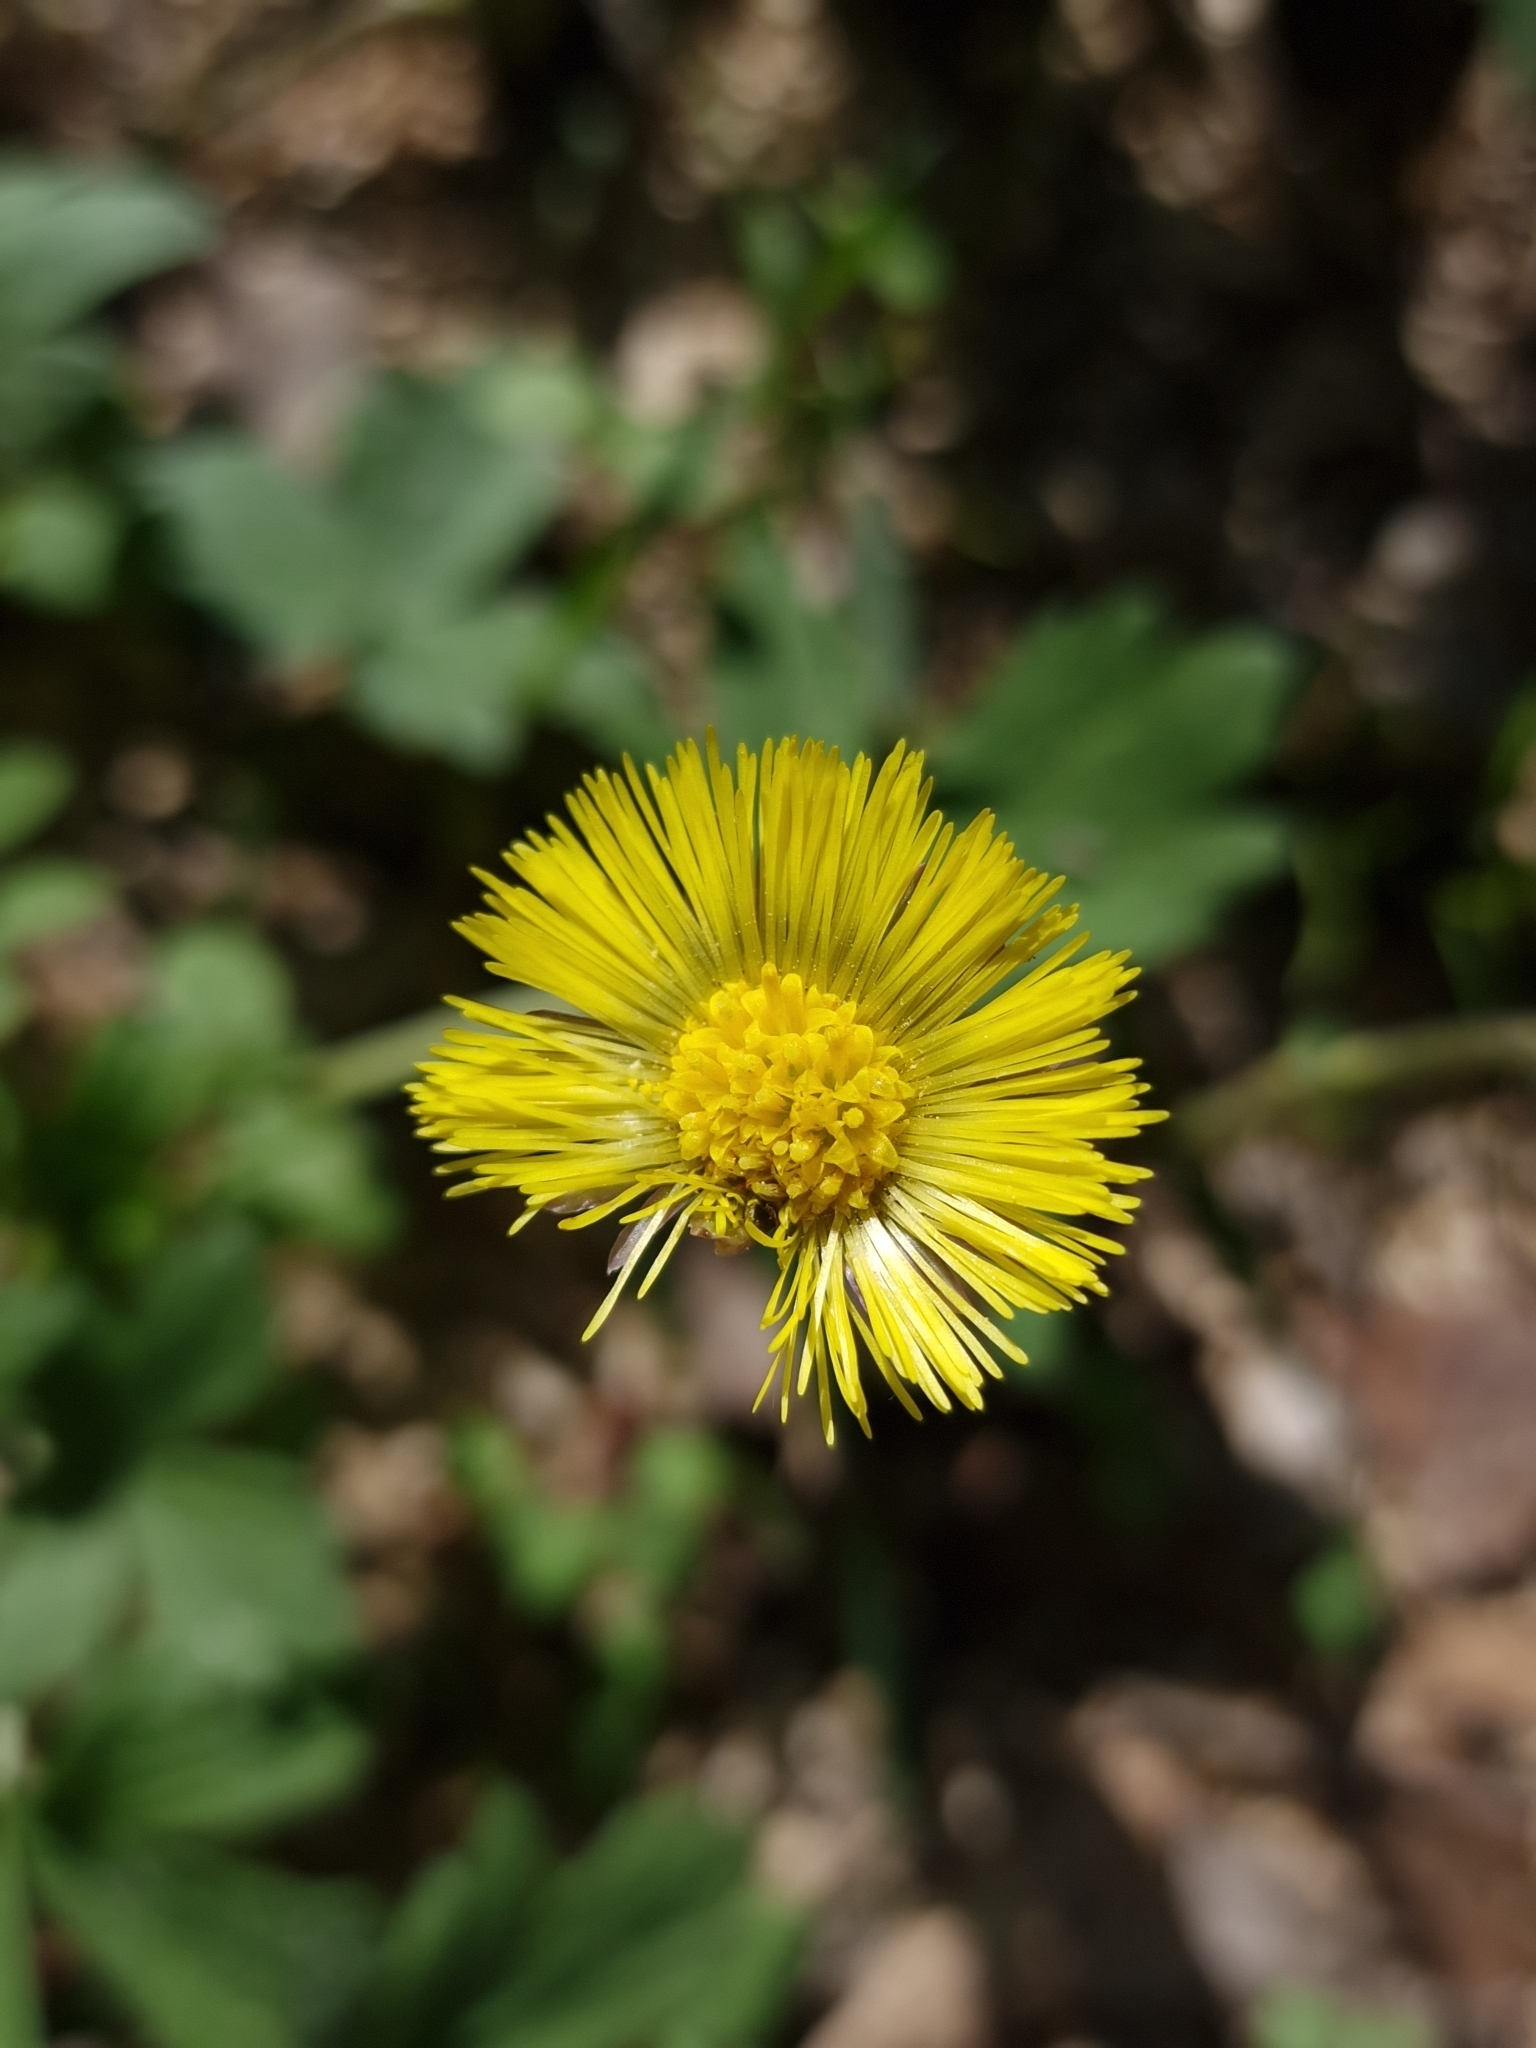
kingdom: Plantae
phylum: Tracheophyta
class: Magnoliopsida
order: Asterales
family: Asteraceae
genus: Tussilago
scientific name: Tussilago farfara
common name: Coltsfoot
